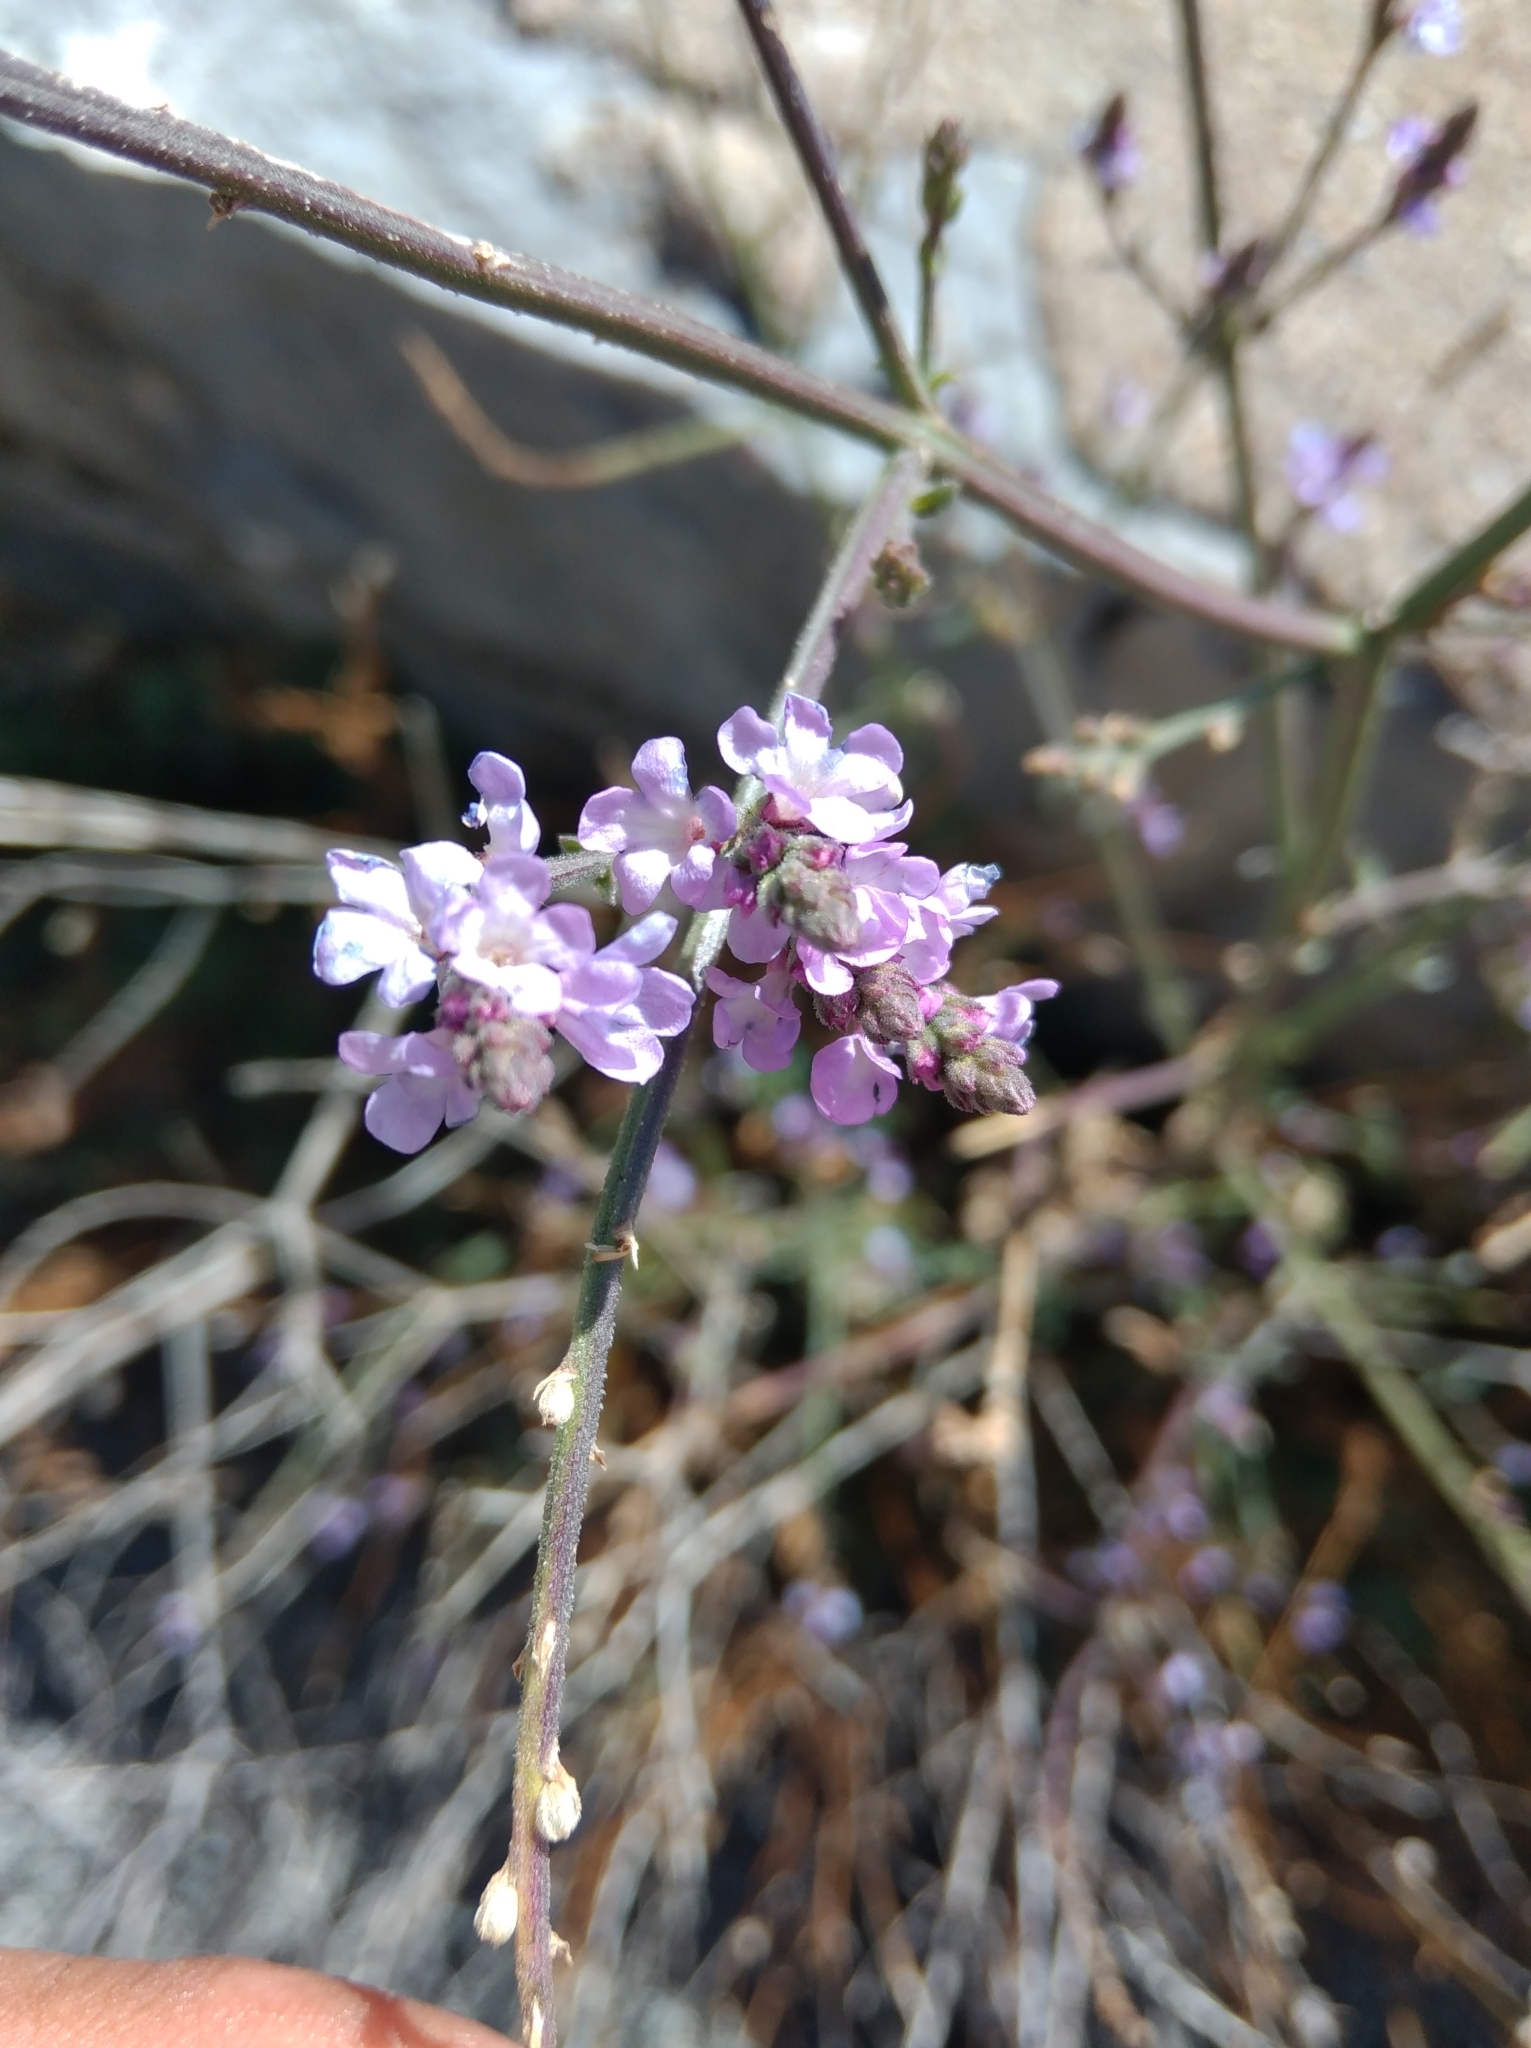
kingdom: Plantae
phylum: Tracheophyta
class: Magnoliopsida
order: Lamiales
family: Verbenaceae
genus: Verbena
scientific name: Verbena officinalis
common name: Vervain
